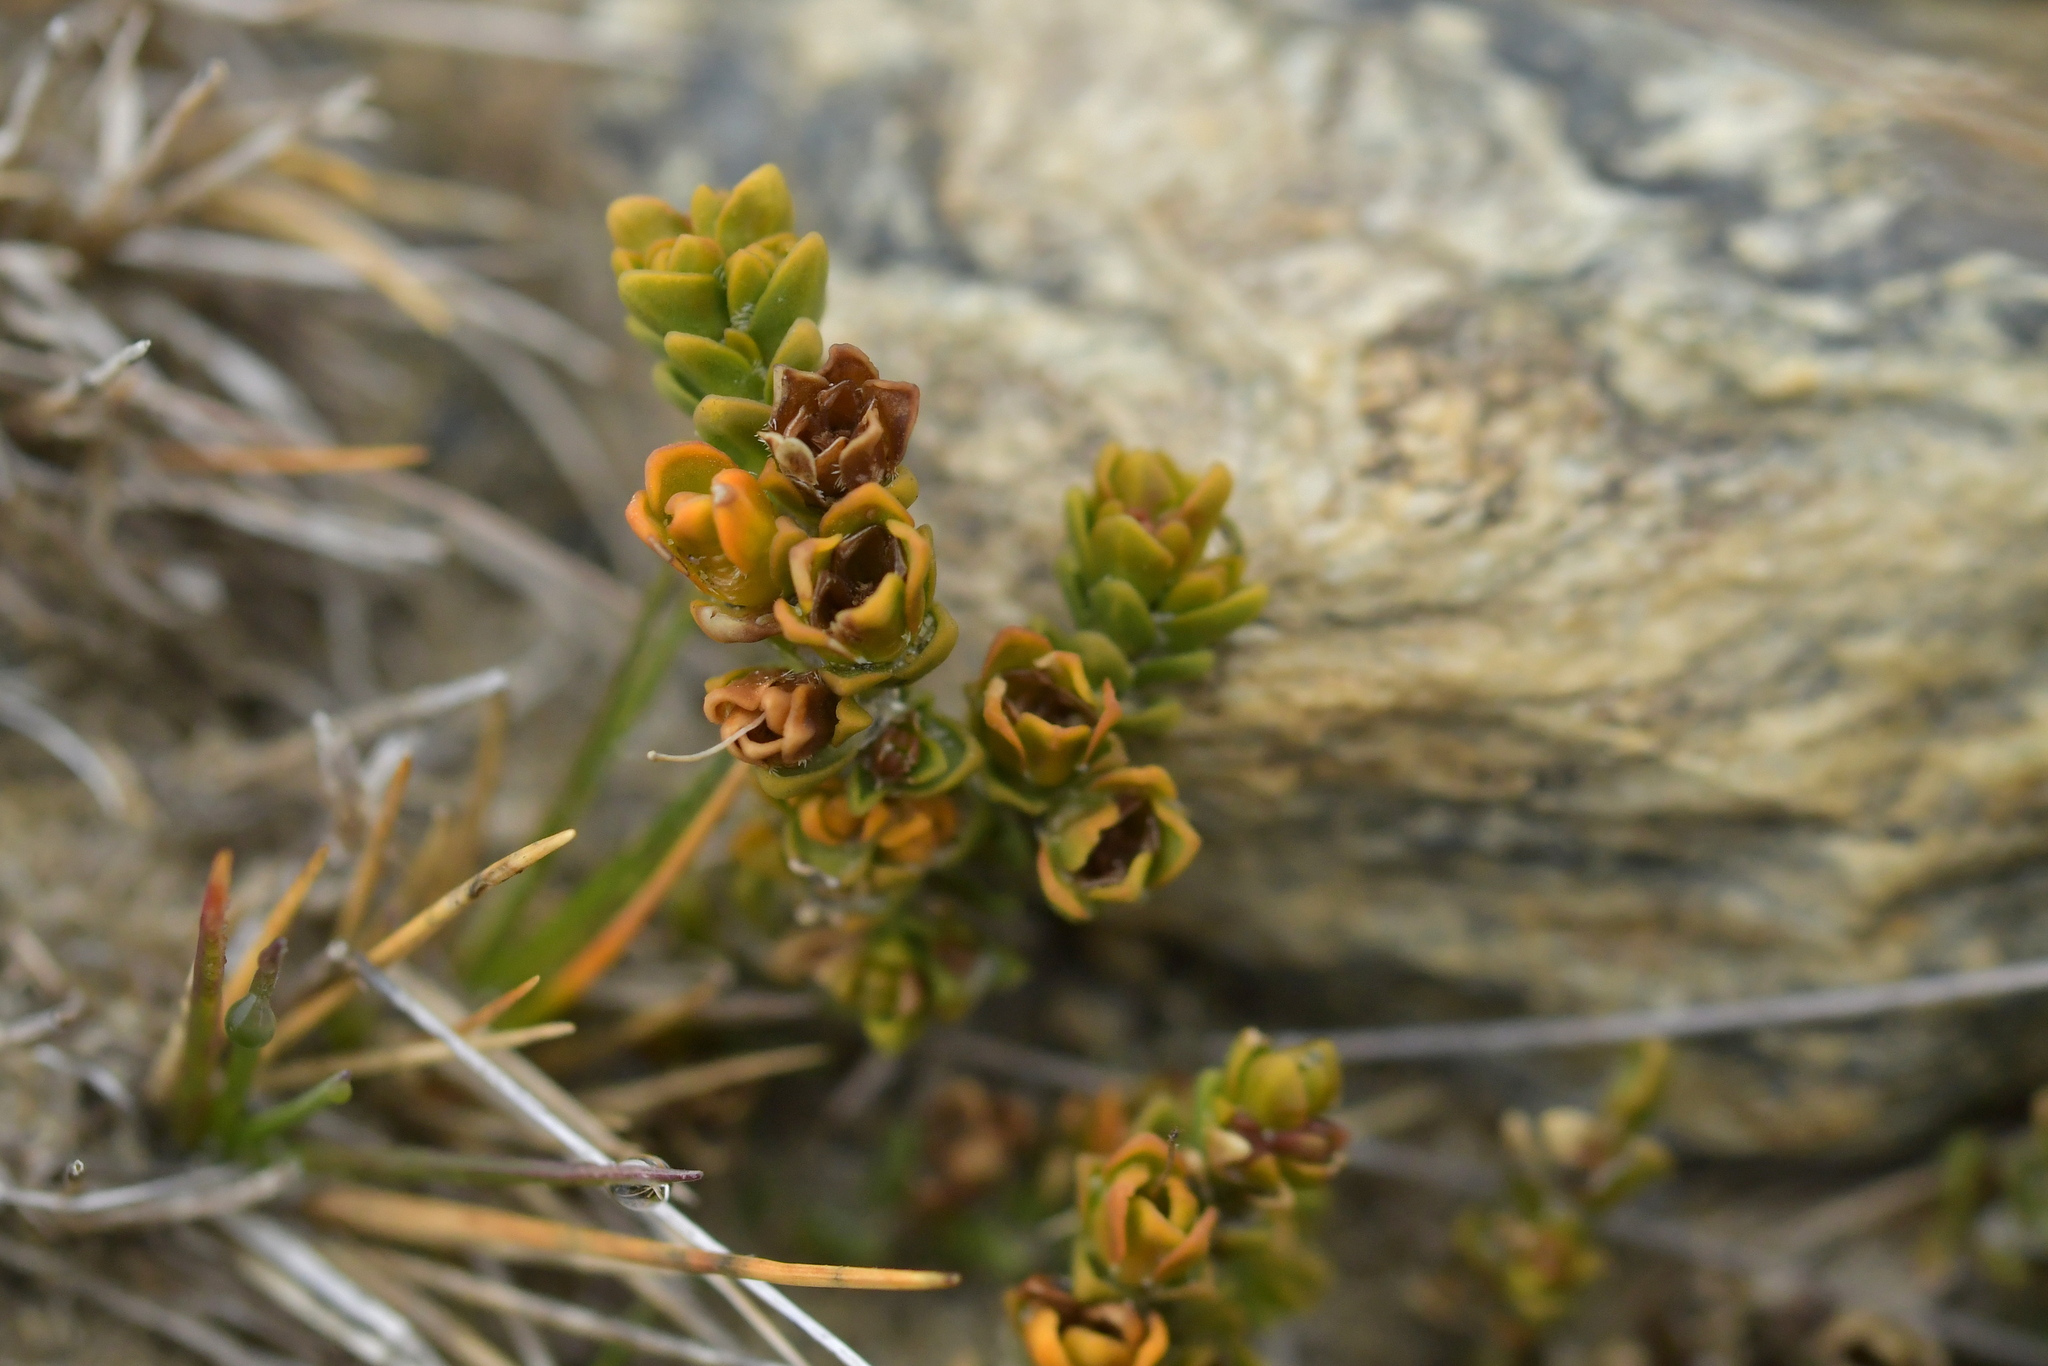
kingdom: Plantae
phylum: Tracheophyta
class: Magnoliopsida
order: Lamiales
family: Plantaginaceae
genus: Veronica
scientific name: Veronica densifolia
